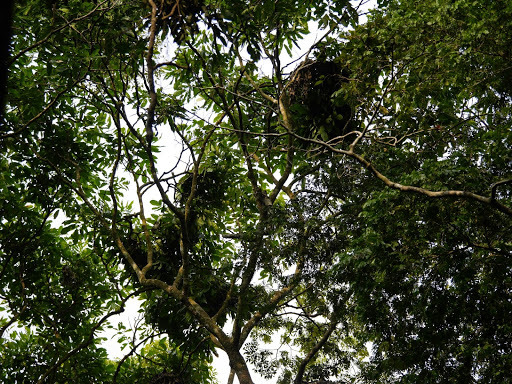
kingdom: Animalia
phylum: Chordata
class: Mammalia
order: Primates
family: Hominidae
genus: Pan
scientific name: Pan paniscus
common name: Bonobo
